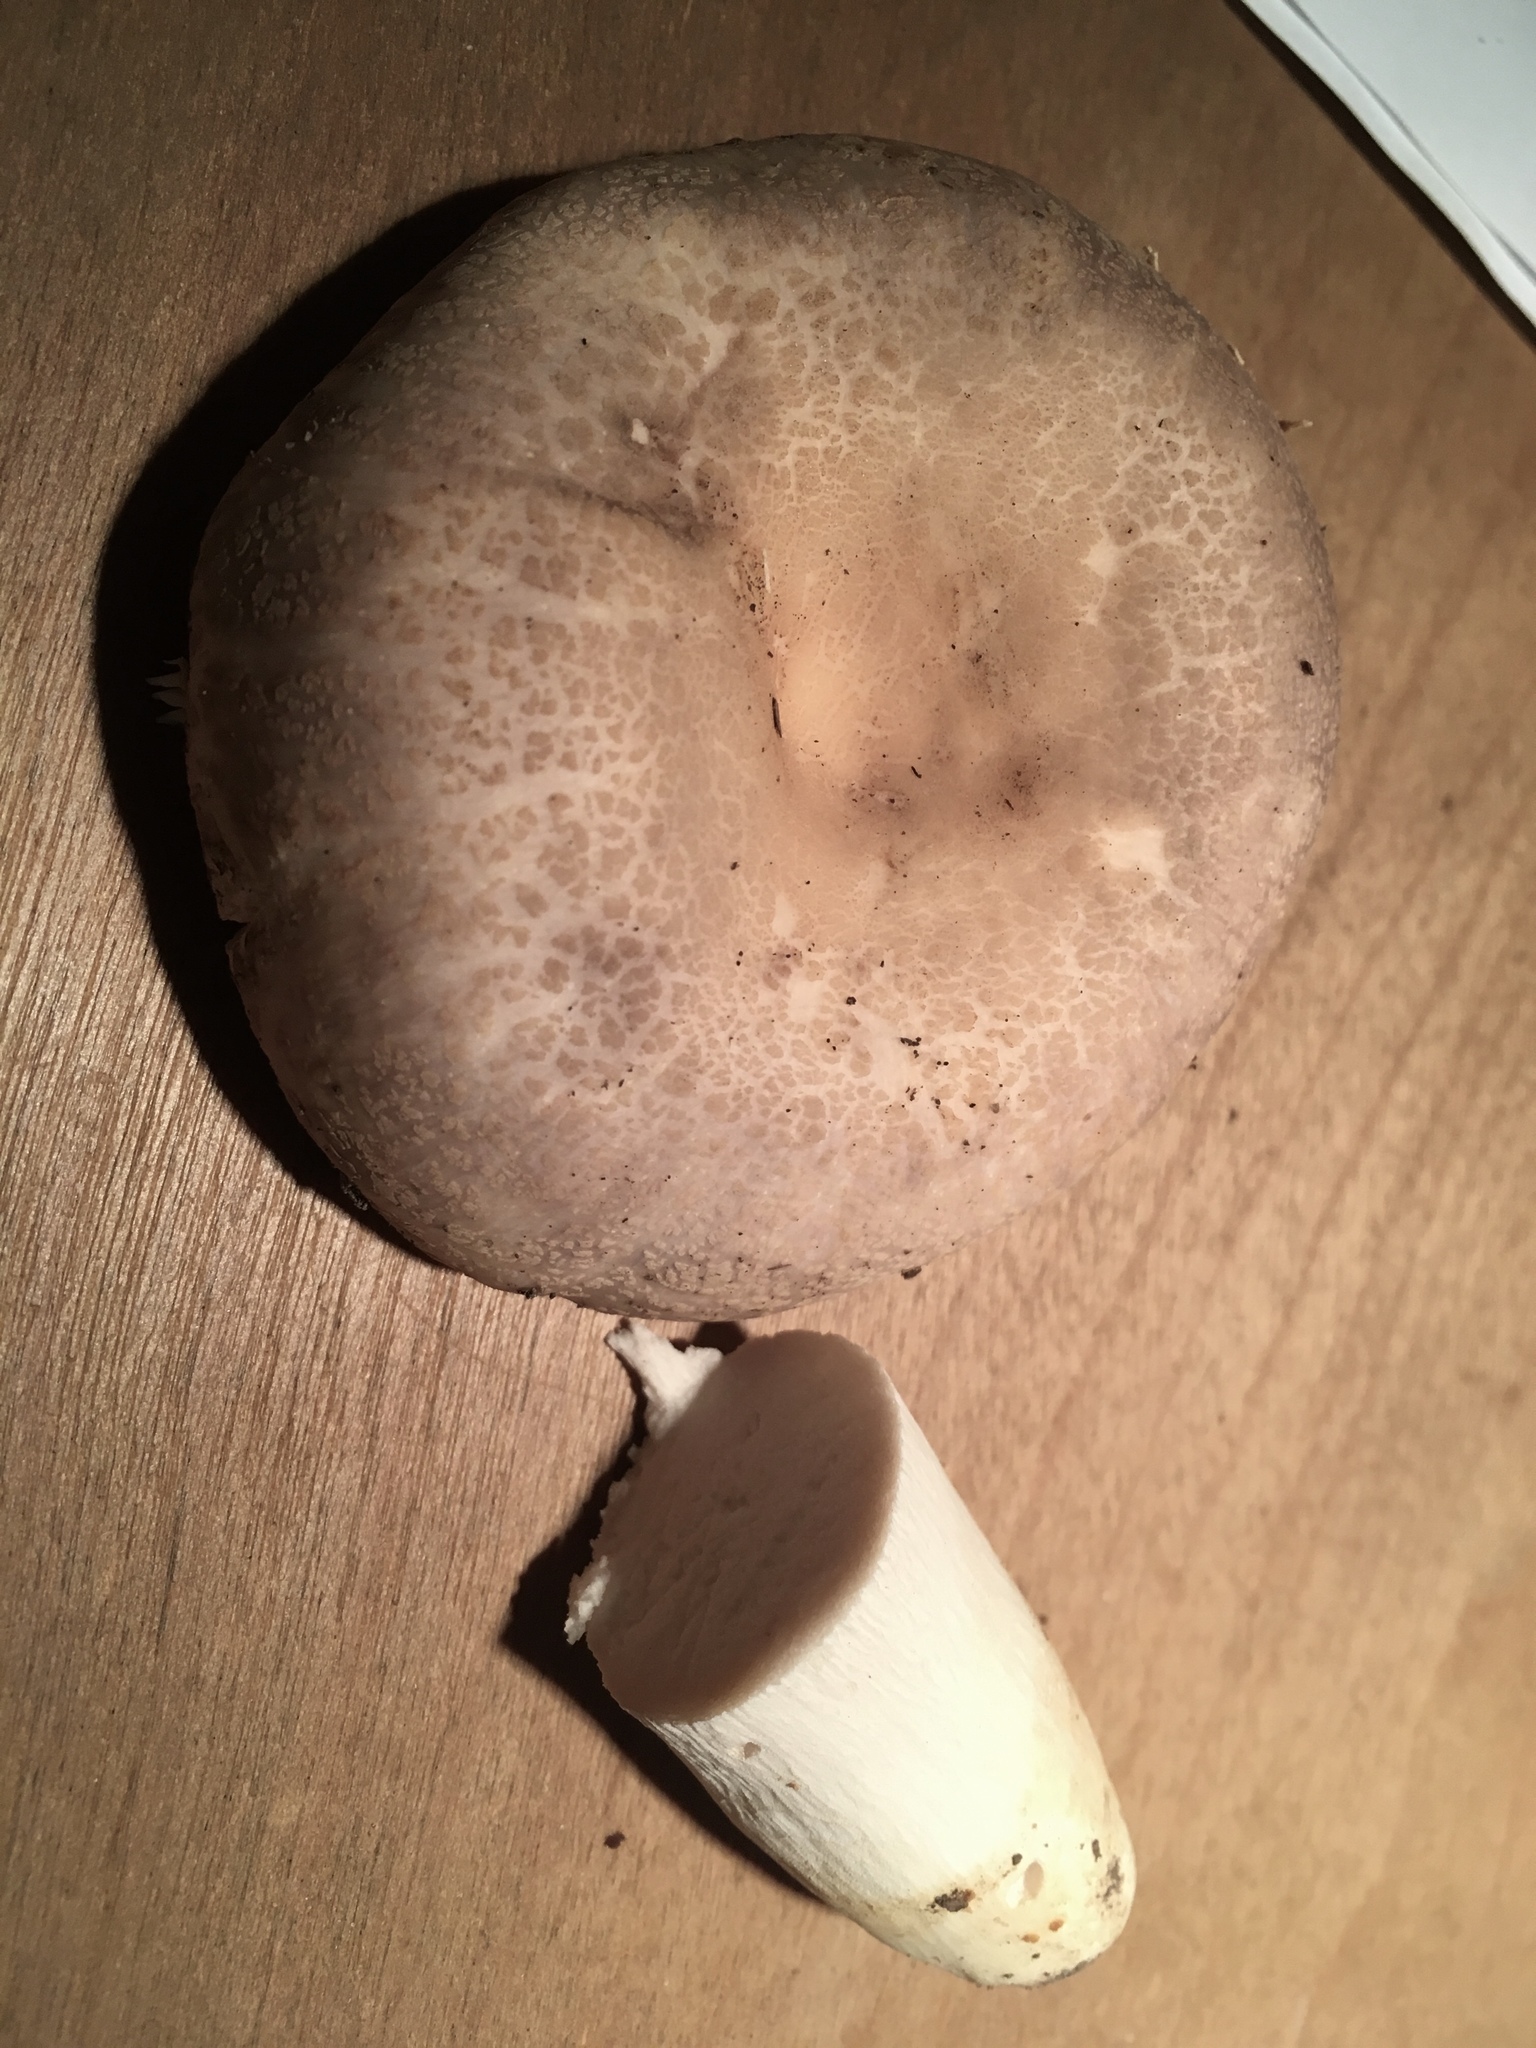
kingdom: Fungi
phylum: Basidiomycota
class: Agaricomycetes
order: Russulales
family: Russulaceae
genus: Russula
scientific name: Russula crustosa
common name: Green quilt russula
